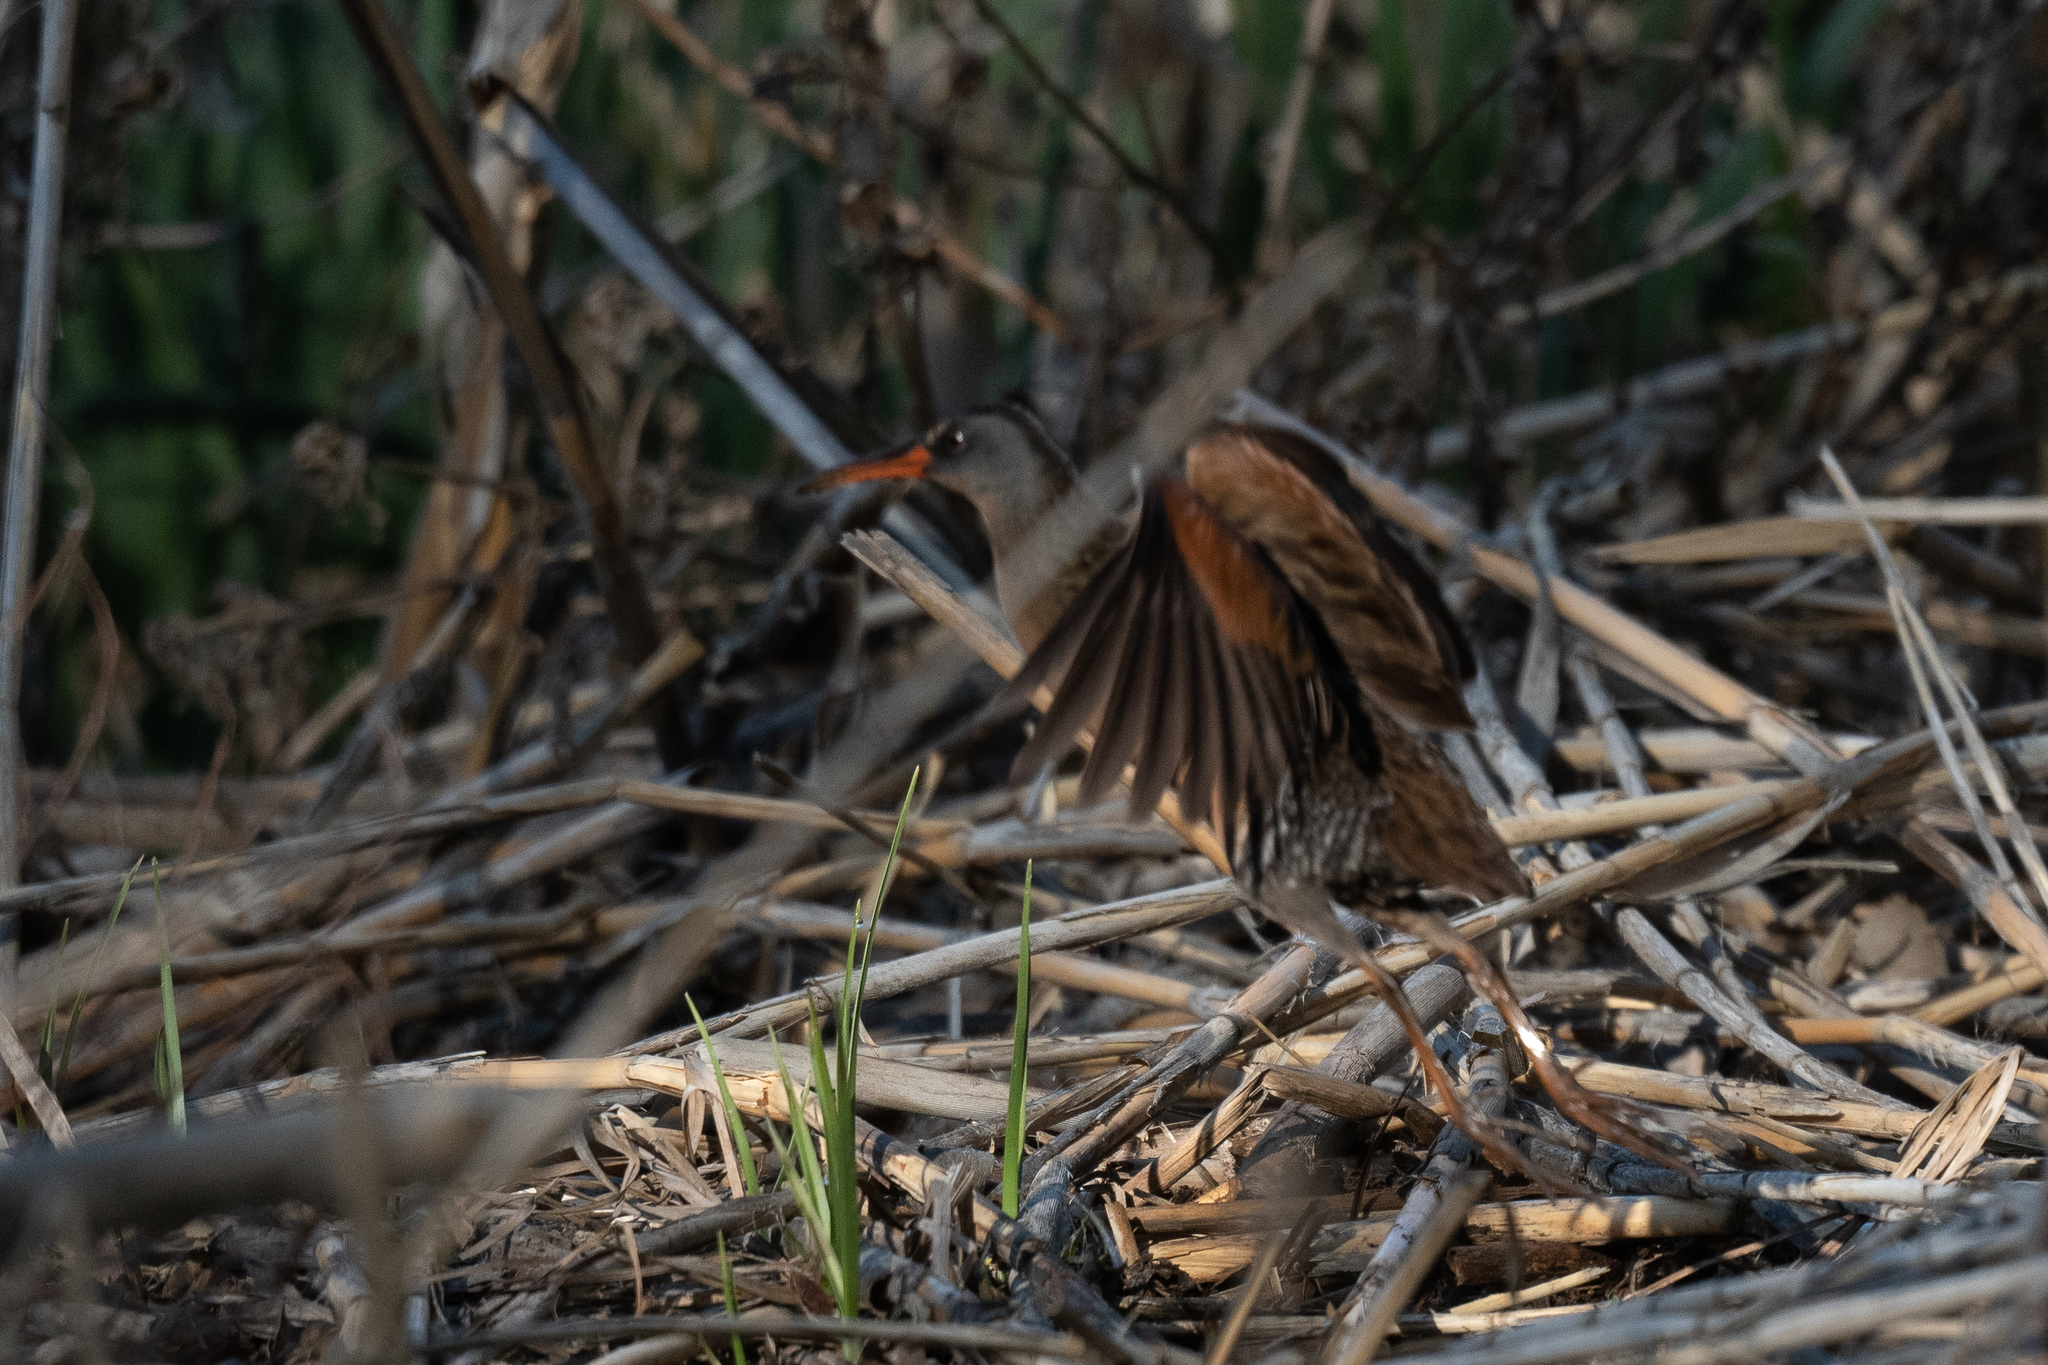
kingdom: Animalia
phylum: Chordata
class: Aves
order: Gruiformes
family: Rallidae
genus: Rallus
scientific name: Rallus limicola
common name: Virginia rail
